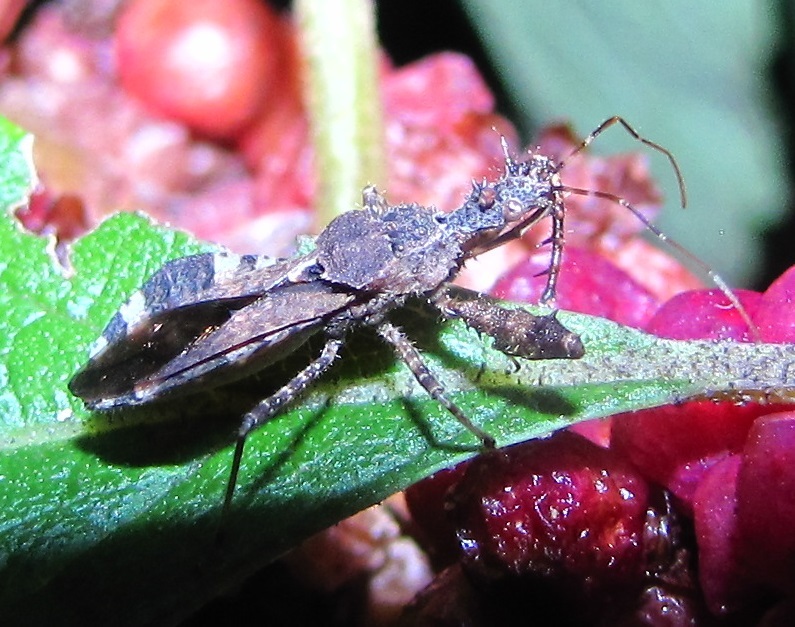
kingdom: Animalia
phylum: Arthropoda
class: Insecta
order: Hemiptera
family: Reduviidae
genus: Sinea
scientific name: Sinea spinipes
